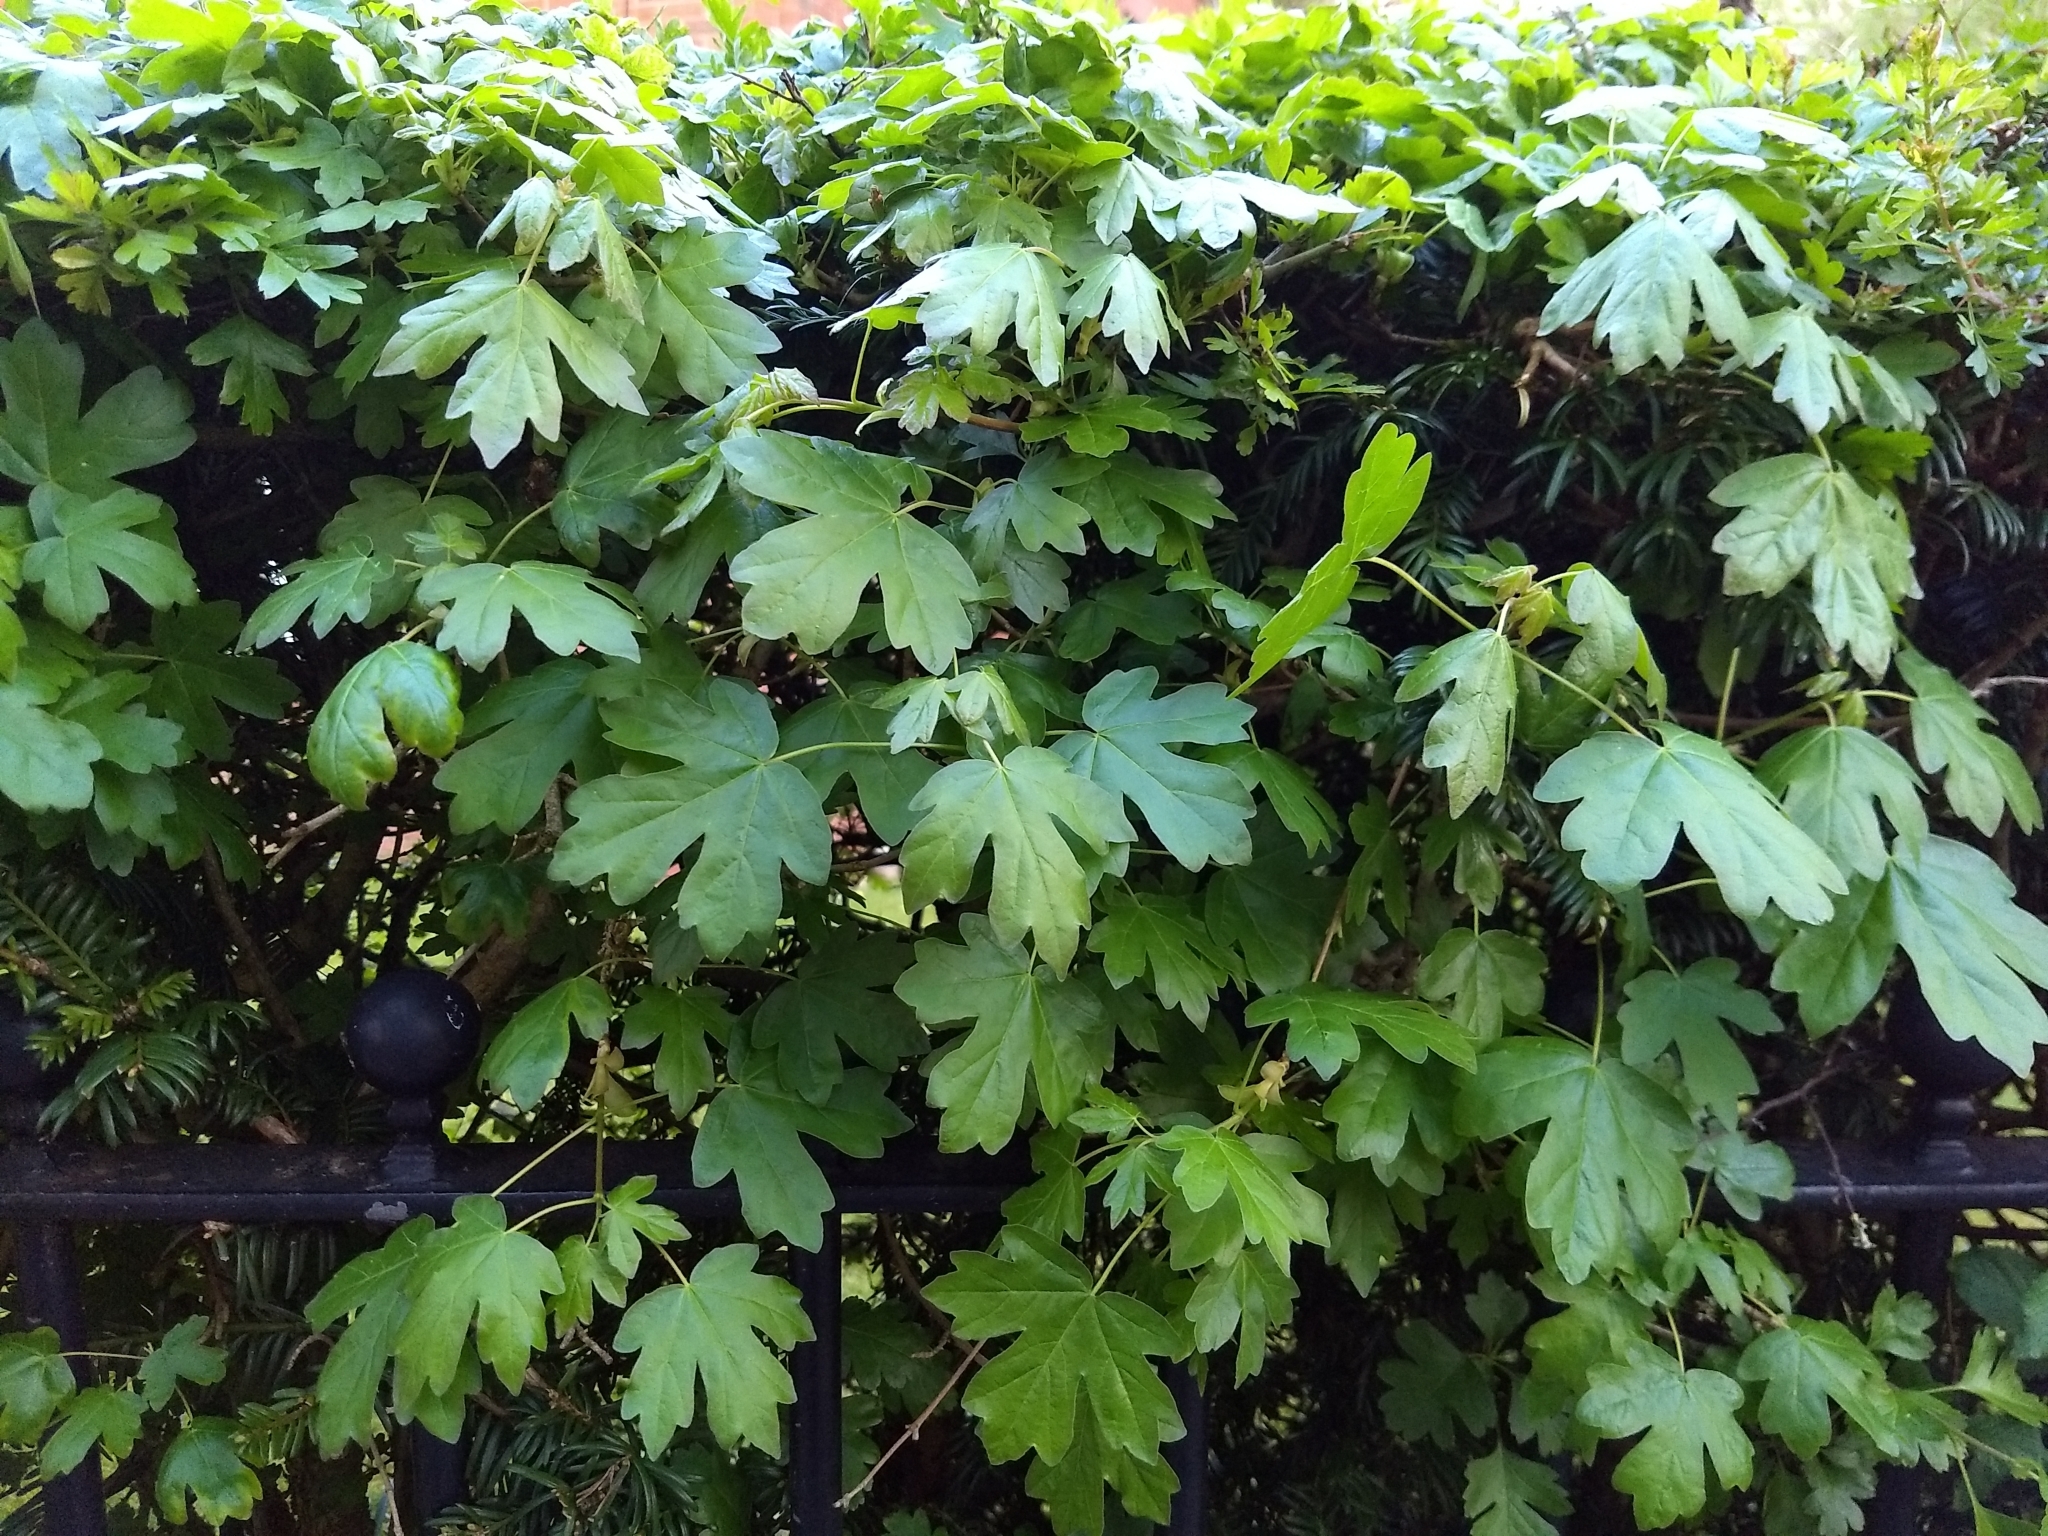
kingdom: Plantae
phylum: Tracheophyta
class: Magnoliopsida
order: Sapindales
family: Sapindaceae
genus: Acer
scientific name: Acer campestre
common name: Field maple
